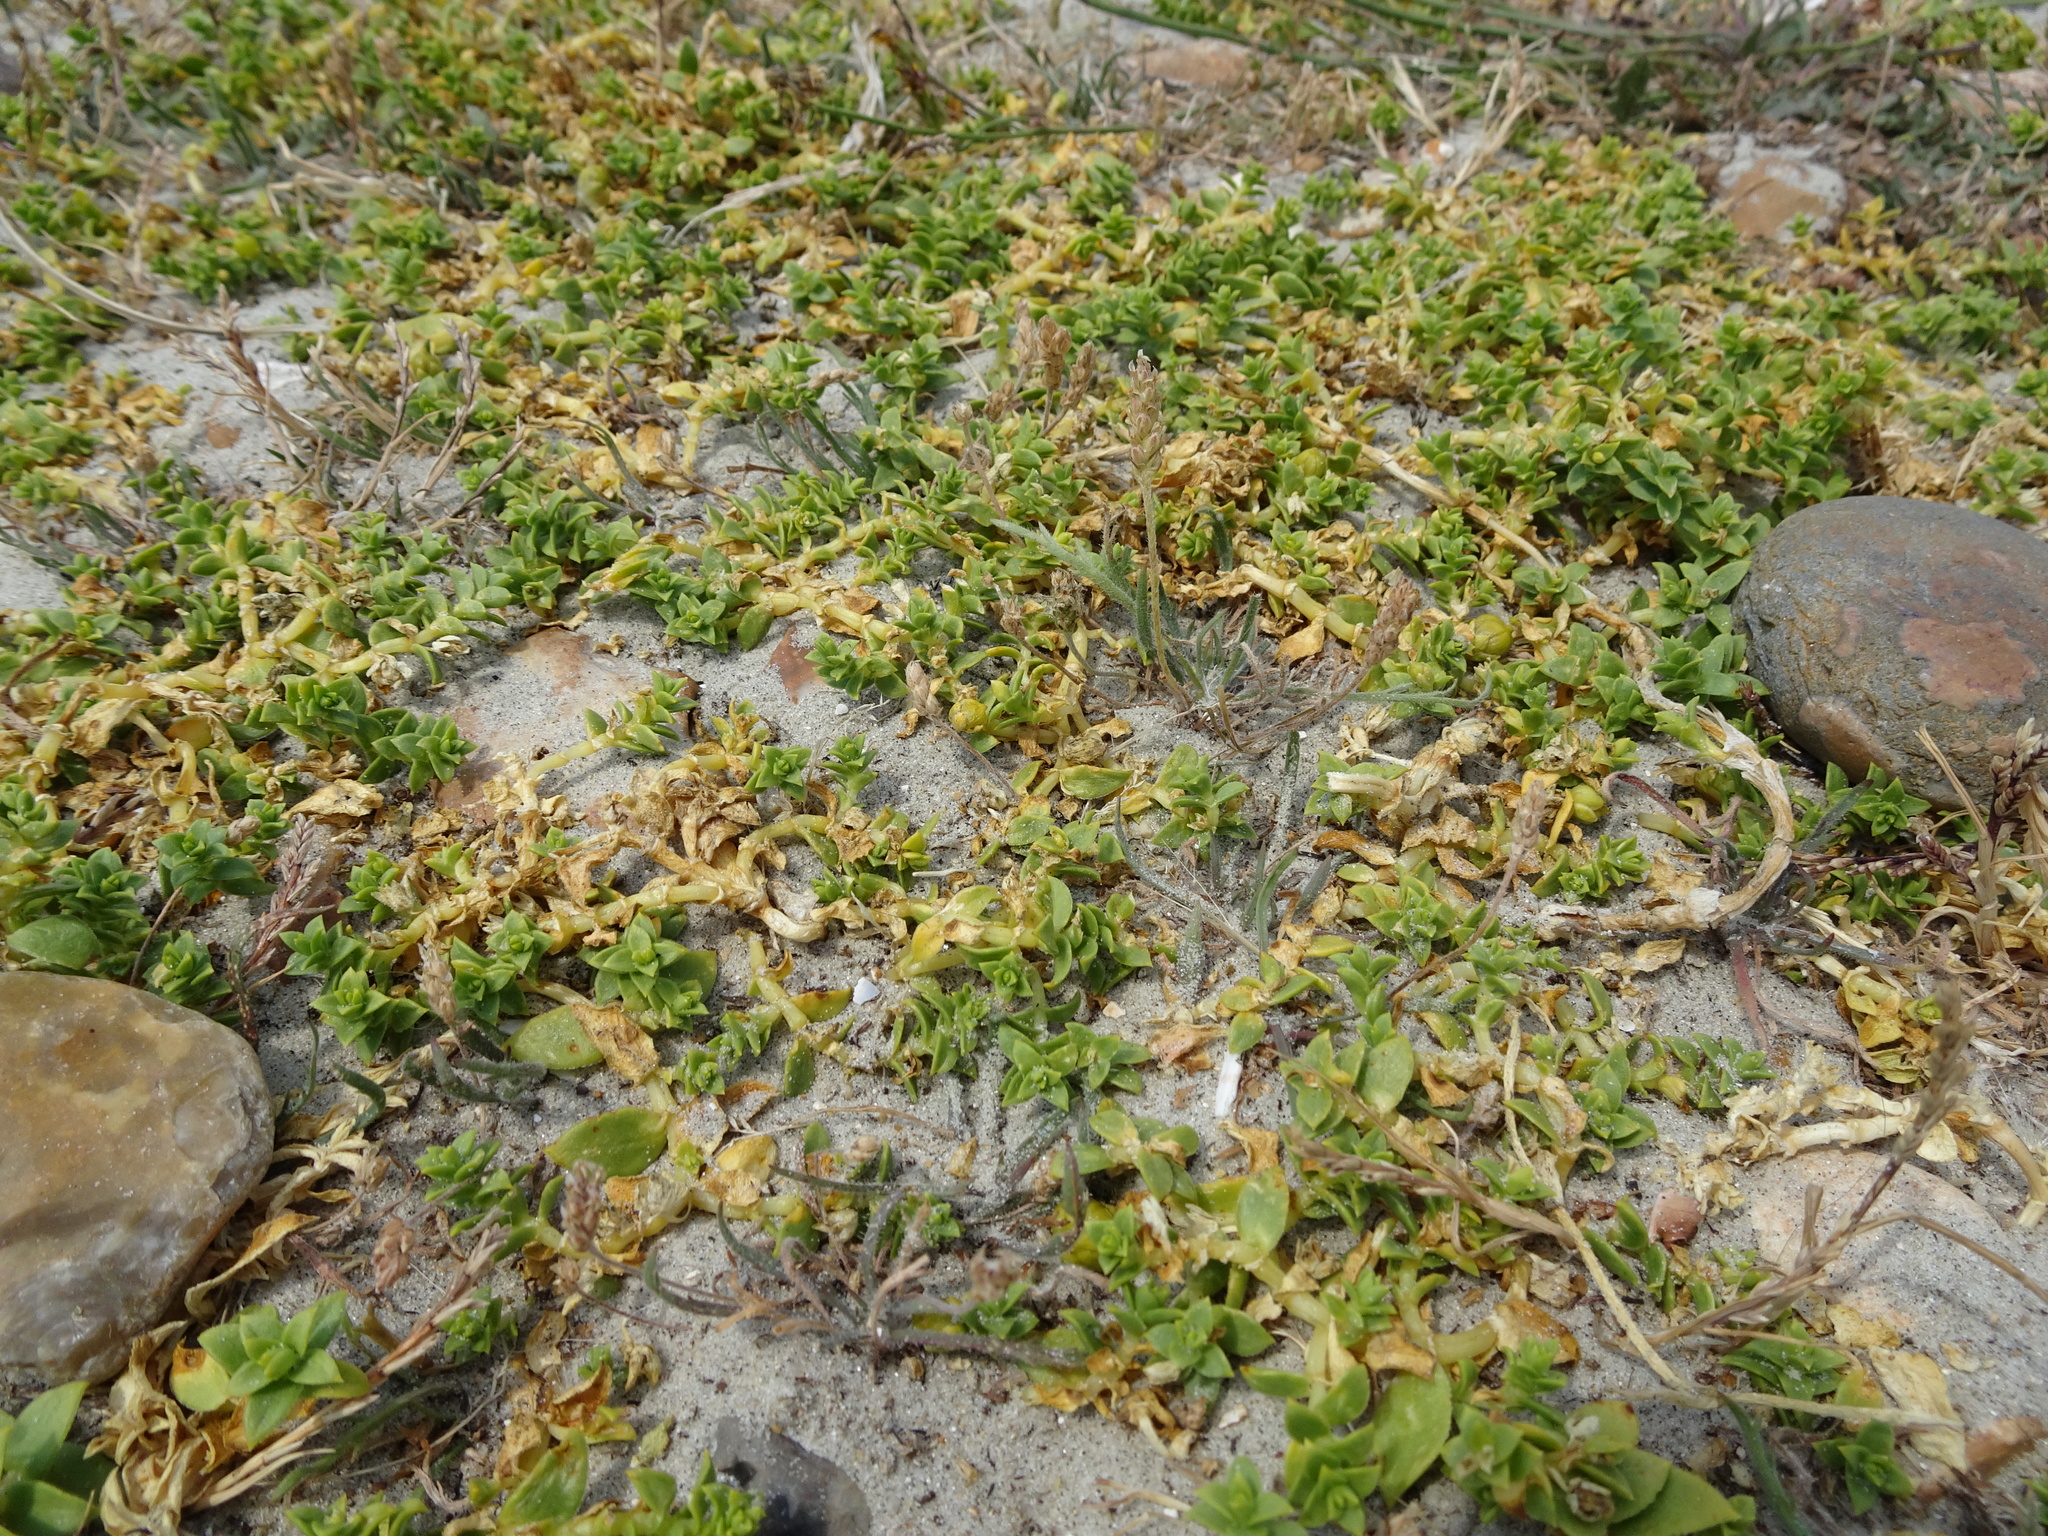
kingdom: Plantae
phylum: Tracheophyta
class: Magnoliopsida
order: Caryophyllales
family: Caryophyllaceae
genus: Honckenya
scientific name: Honckenya peploides
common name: Sea sandwort
